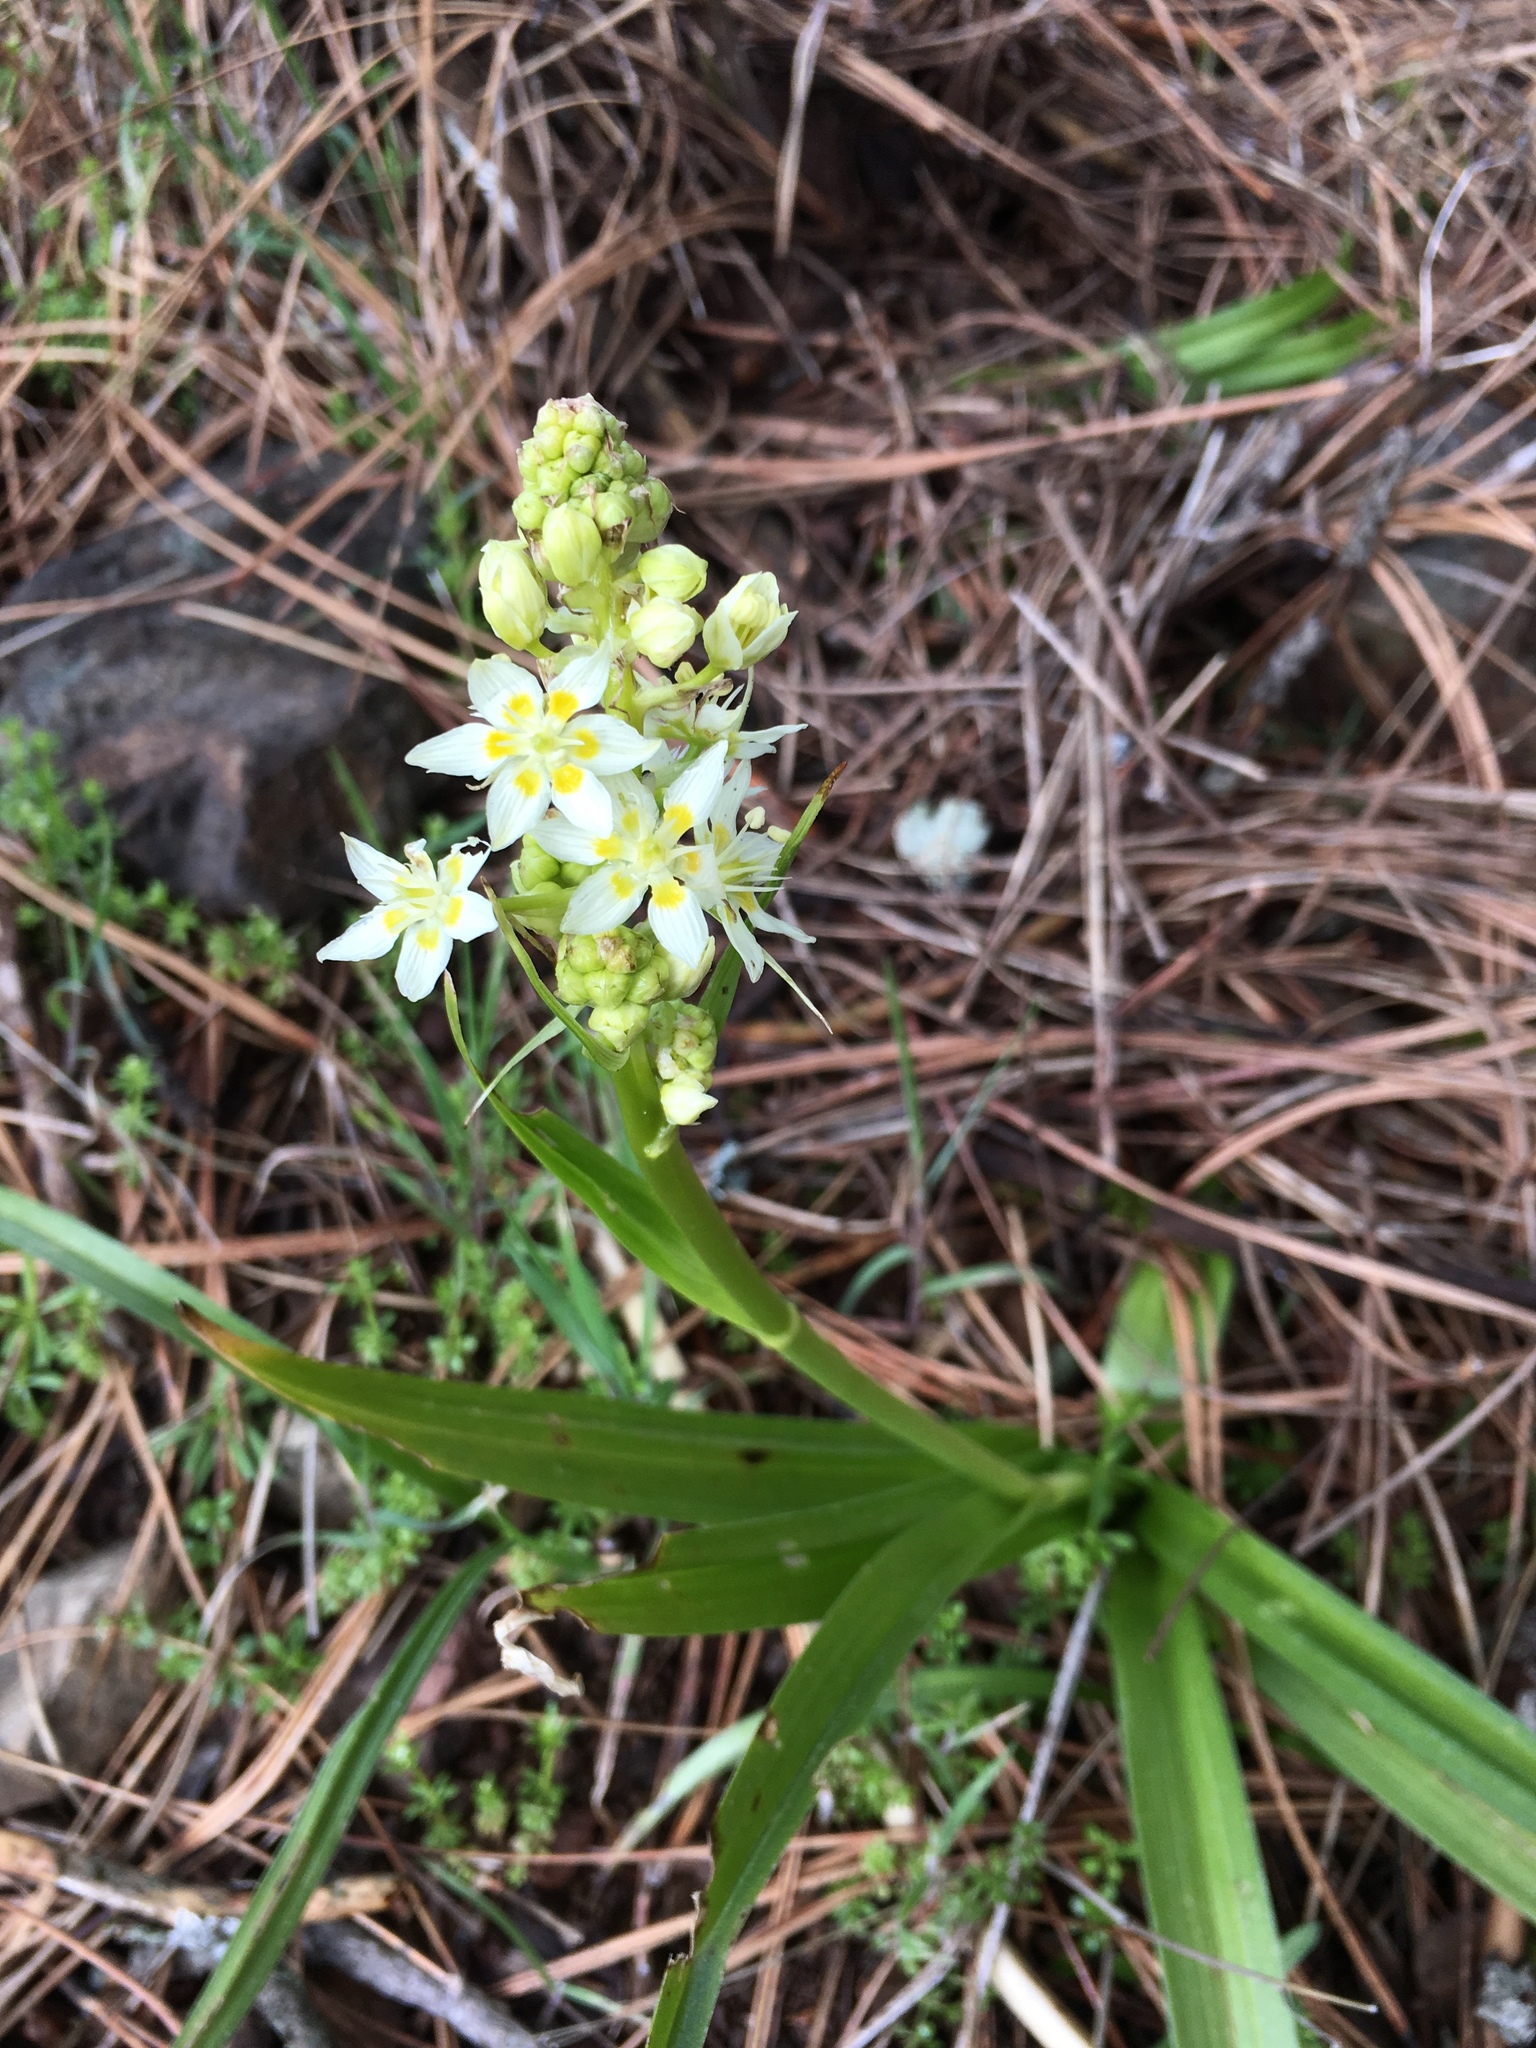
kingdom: Plantae
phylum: Tracheophyta
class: Liliopsida
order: Liliales
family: Melanthiaceae
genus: Toxicoscordion
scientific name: Toxicoscordion fremontii
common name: Fremont's death camas
